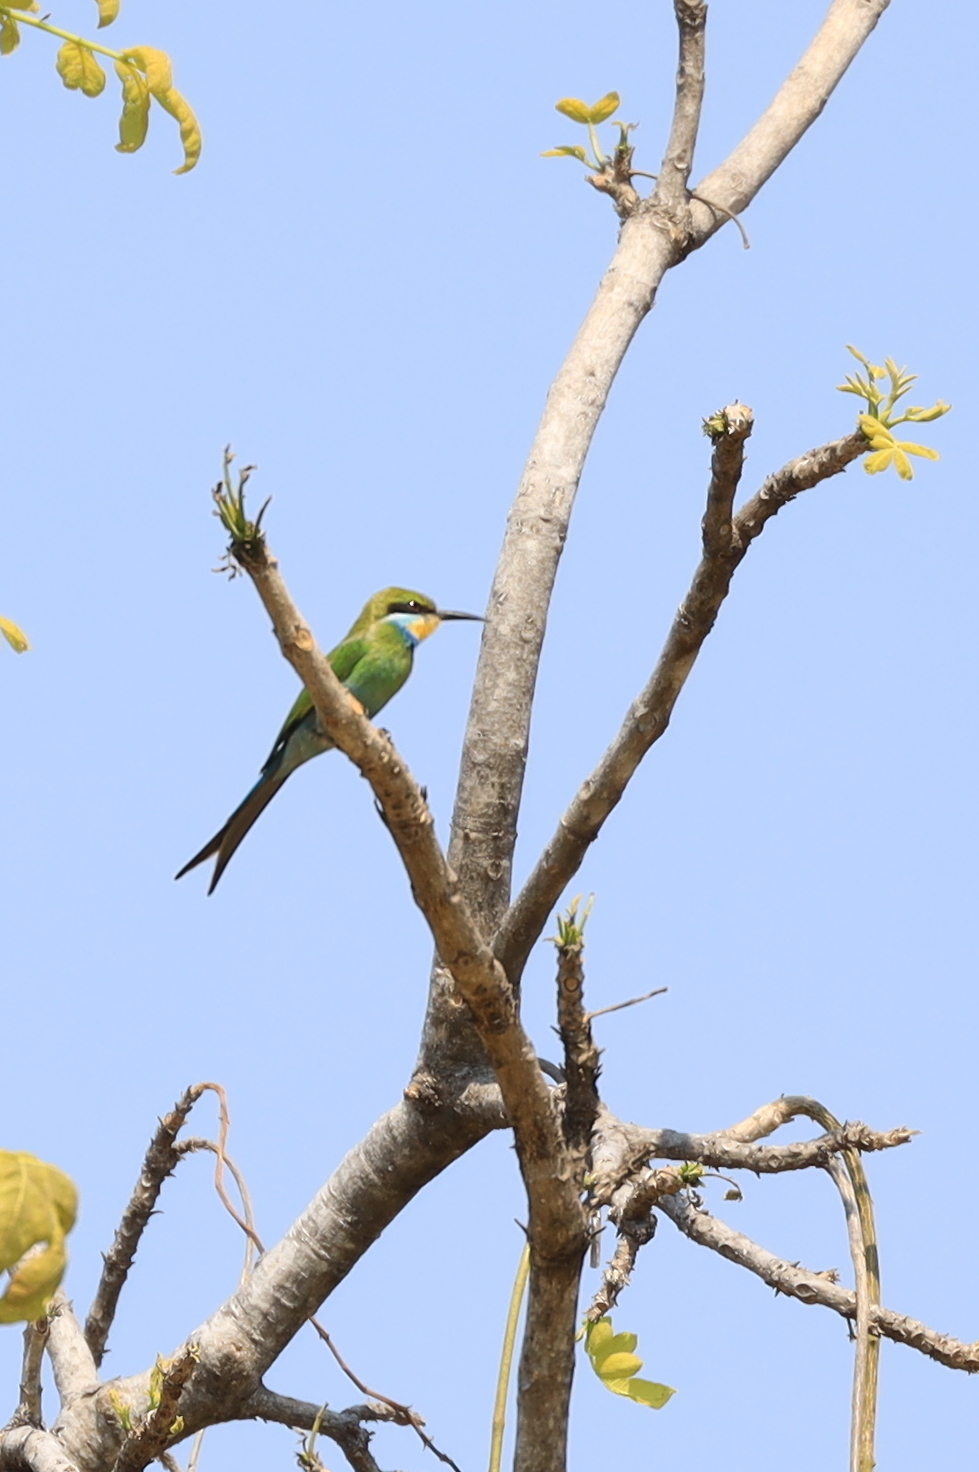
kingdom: Animalia
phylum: Chordata
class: Aves
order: Coraciiformes
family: Meropidae
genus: Merops
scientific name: Merops hirundineus
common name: Swallow-tailed bee-eater
